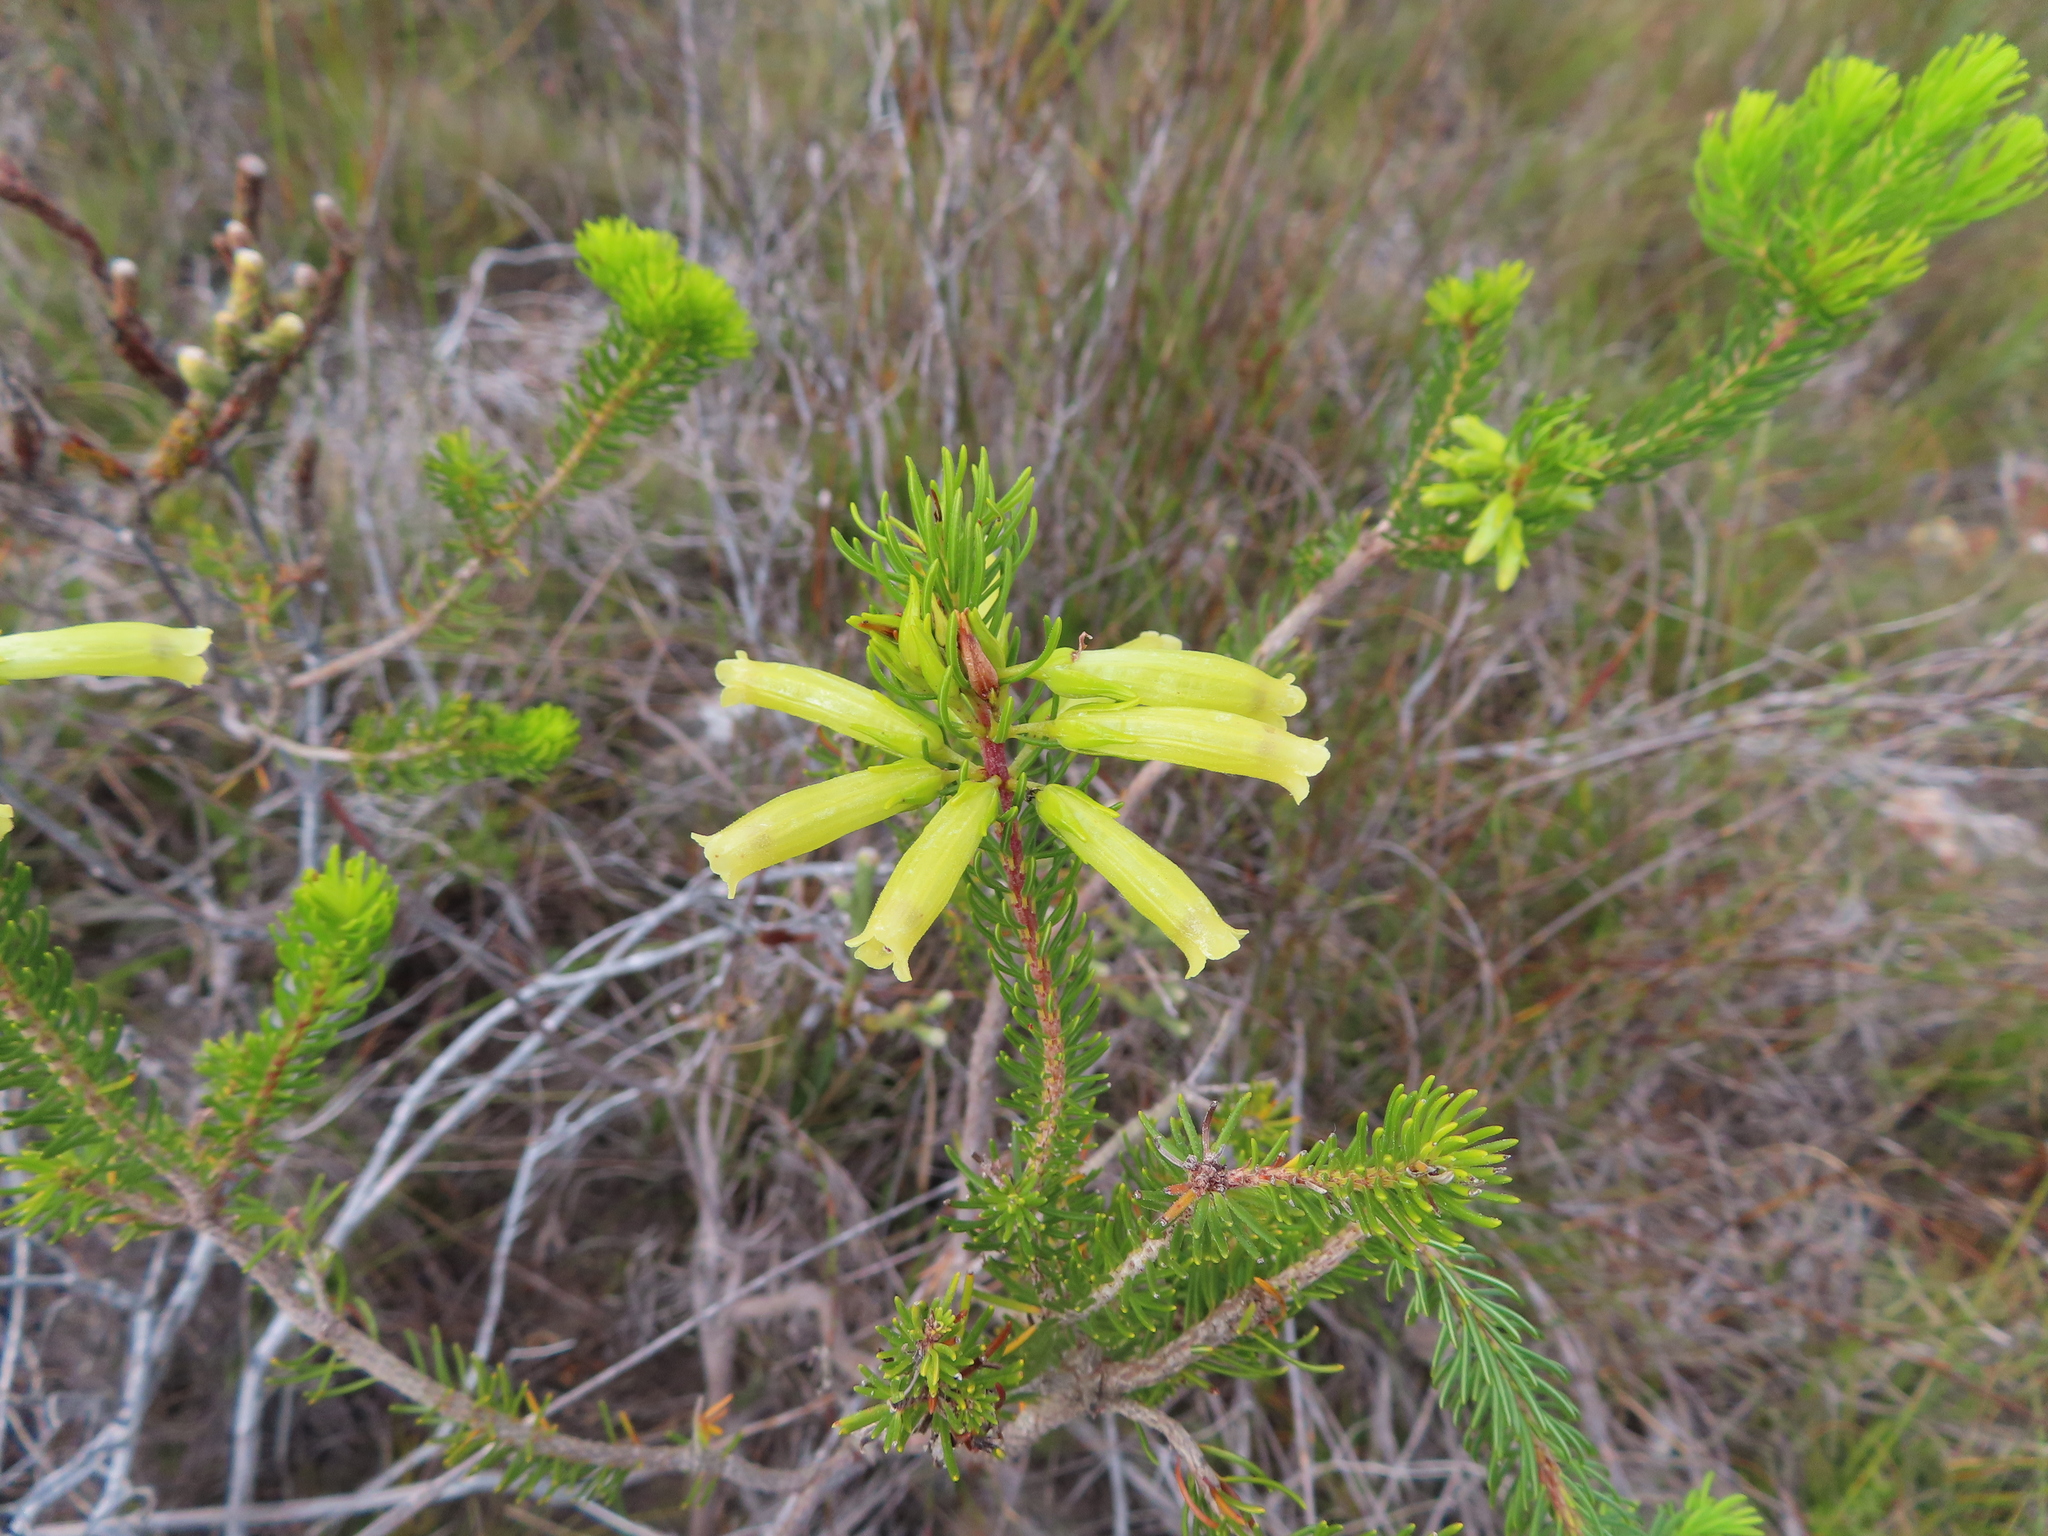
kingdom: Plantae
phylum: Tracheophyta
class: Magnoliopsida
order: Ericales
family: Ericaceae
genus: Erica
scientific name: Erica viscaria
